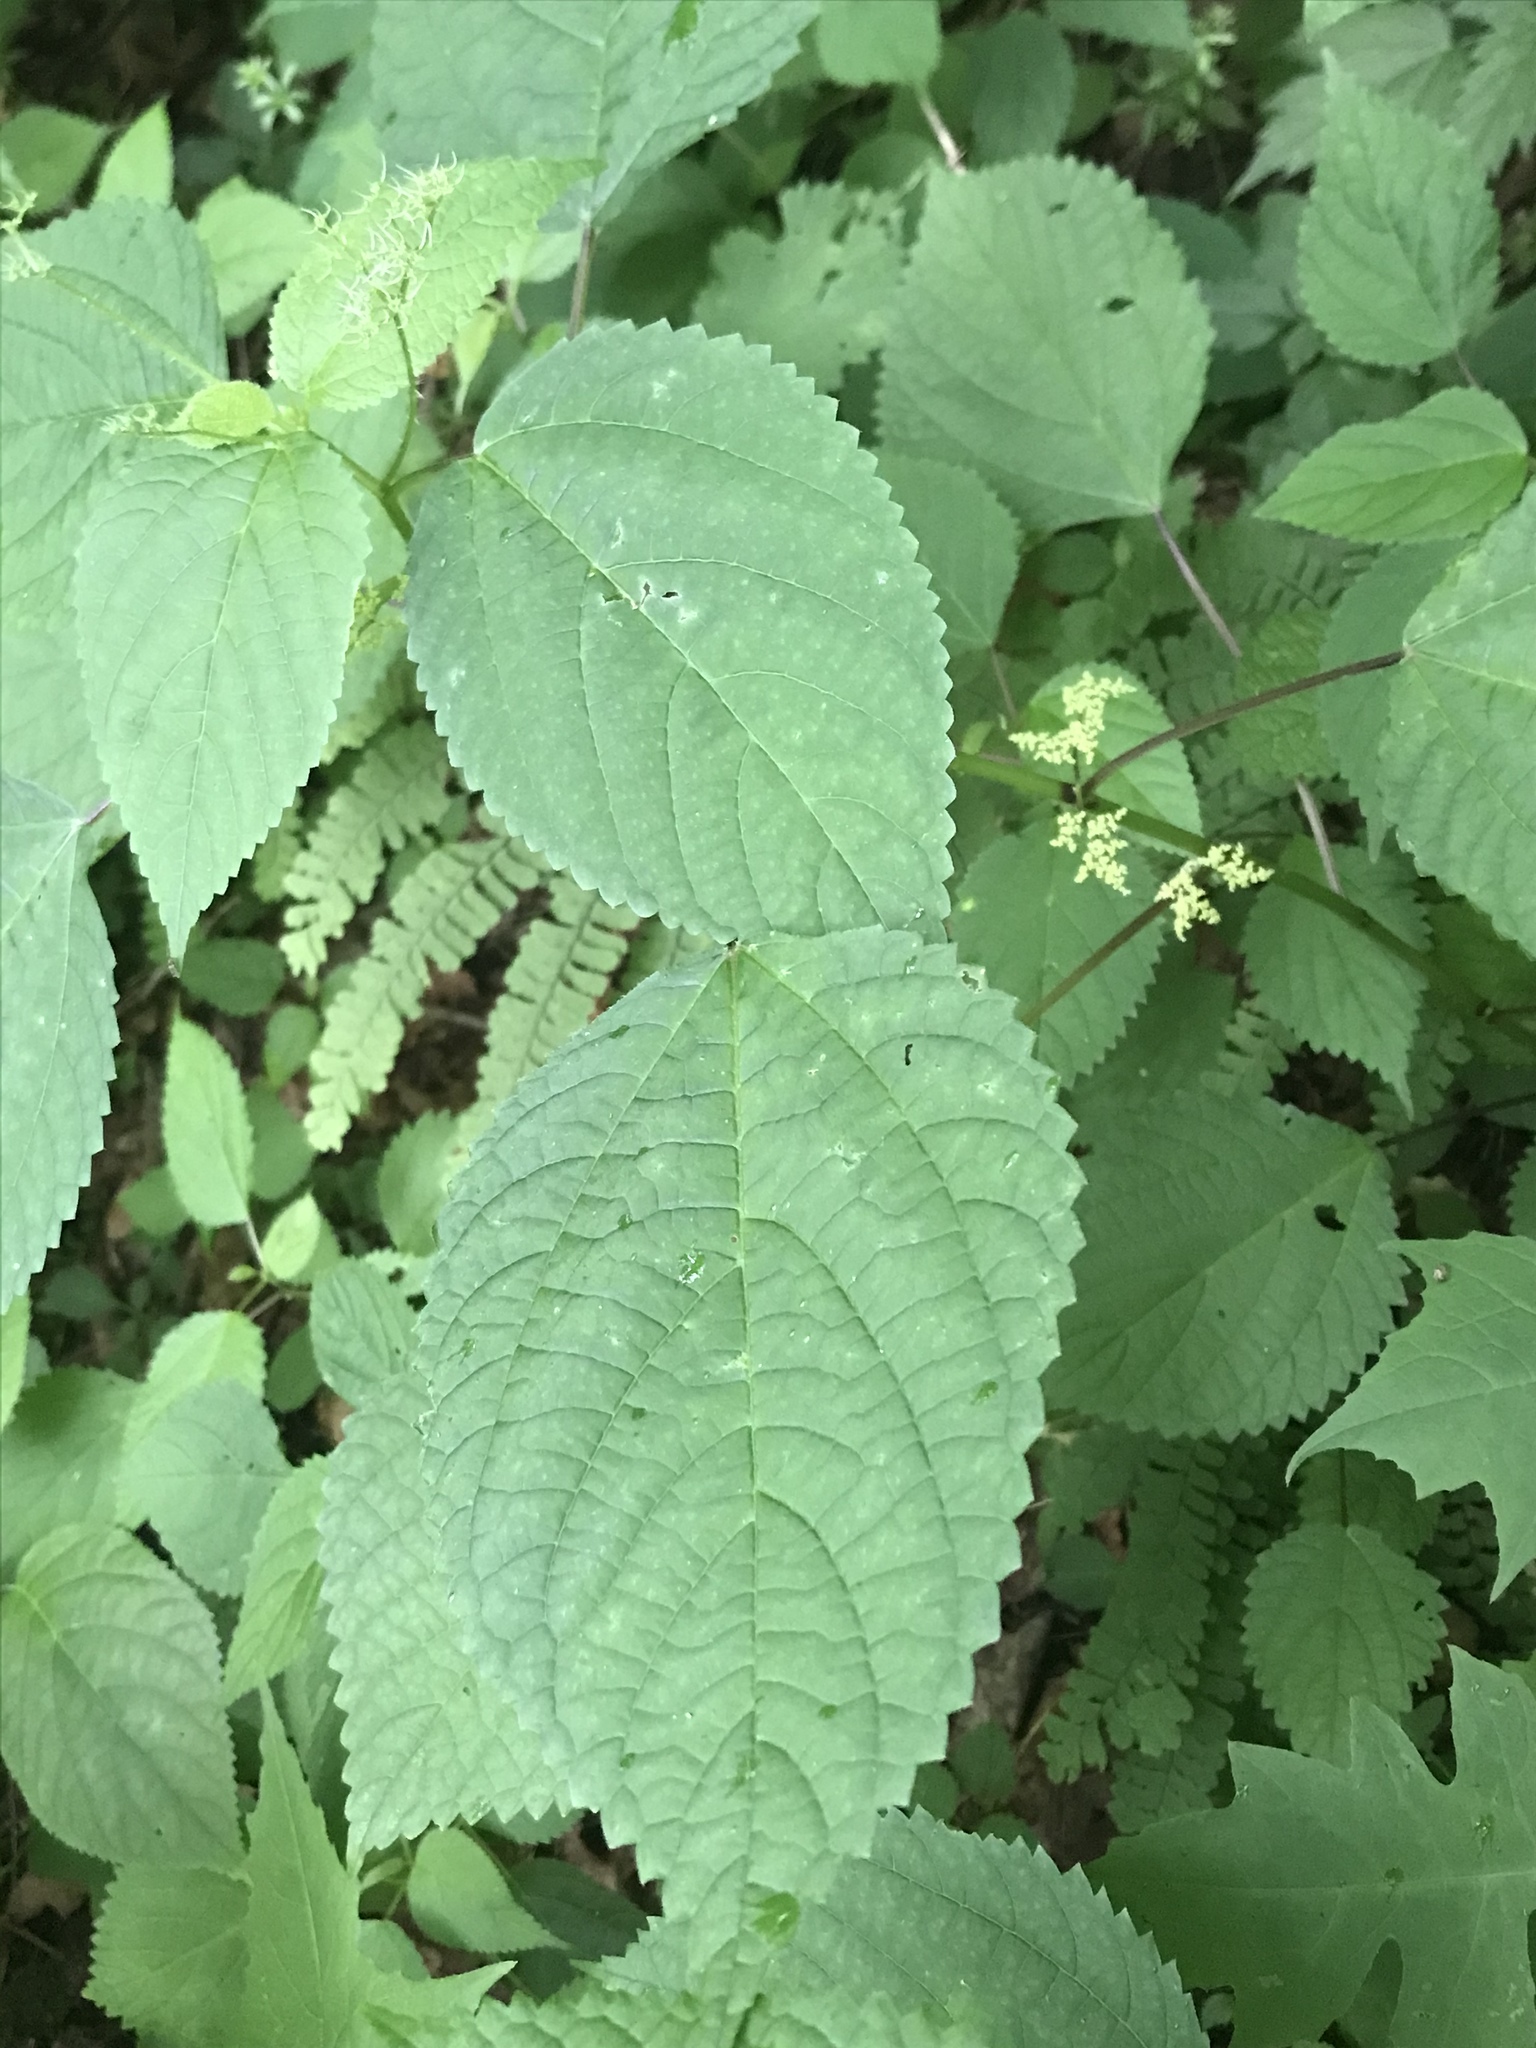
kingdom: Plantae
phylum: Tracheophyta
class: Magnoliopsida
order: Rosales
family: Urticaceae
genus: Laportea
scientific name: Laportea canadensis
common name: Canada nettle
